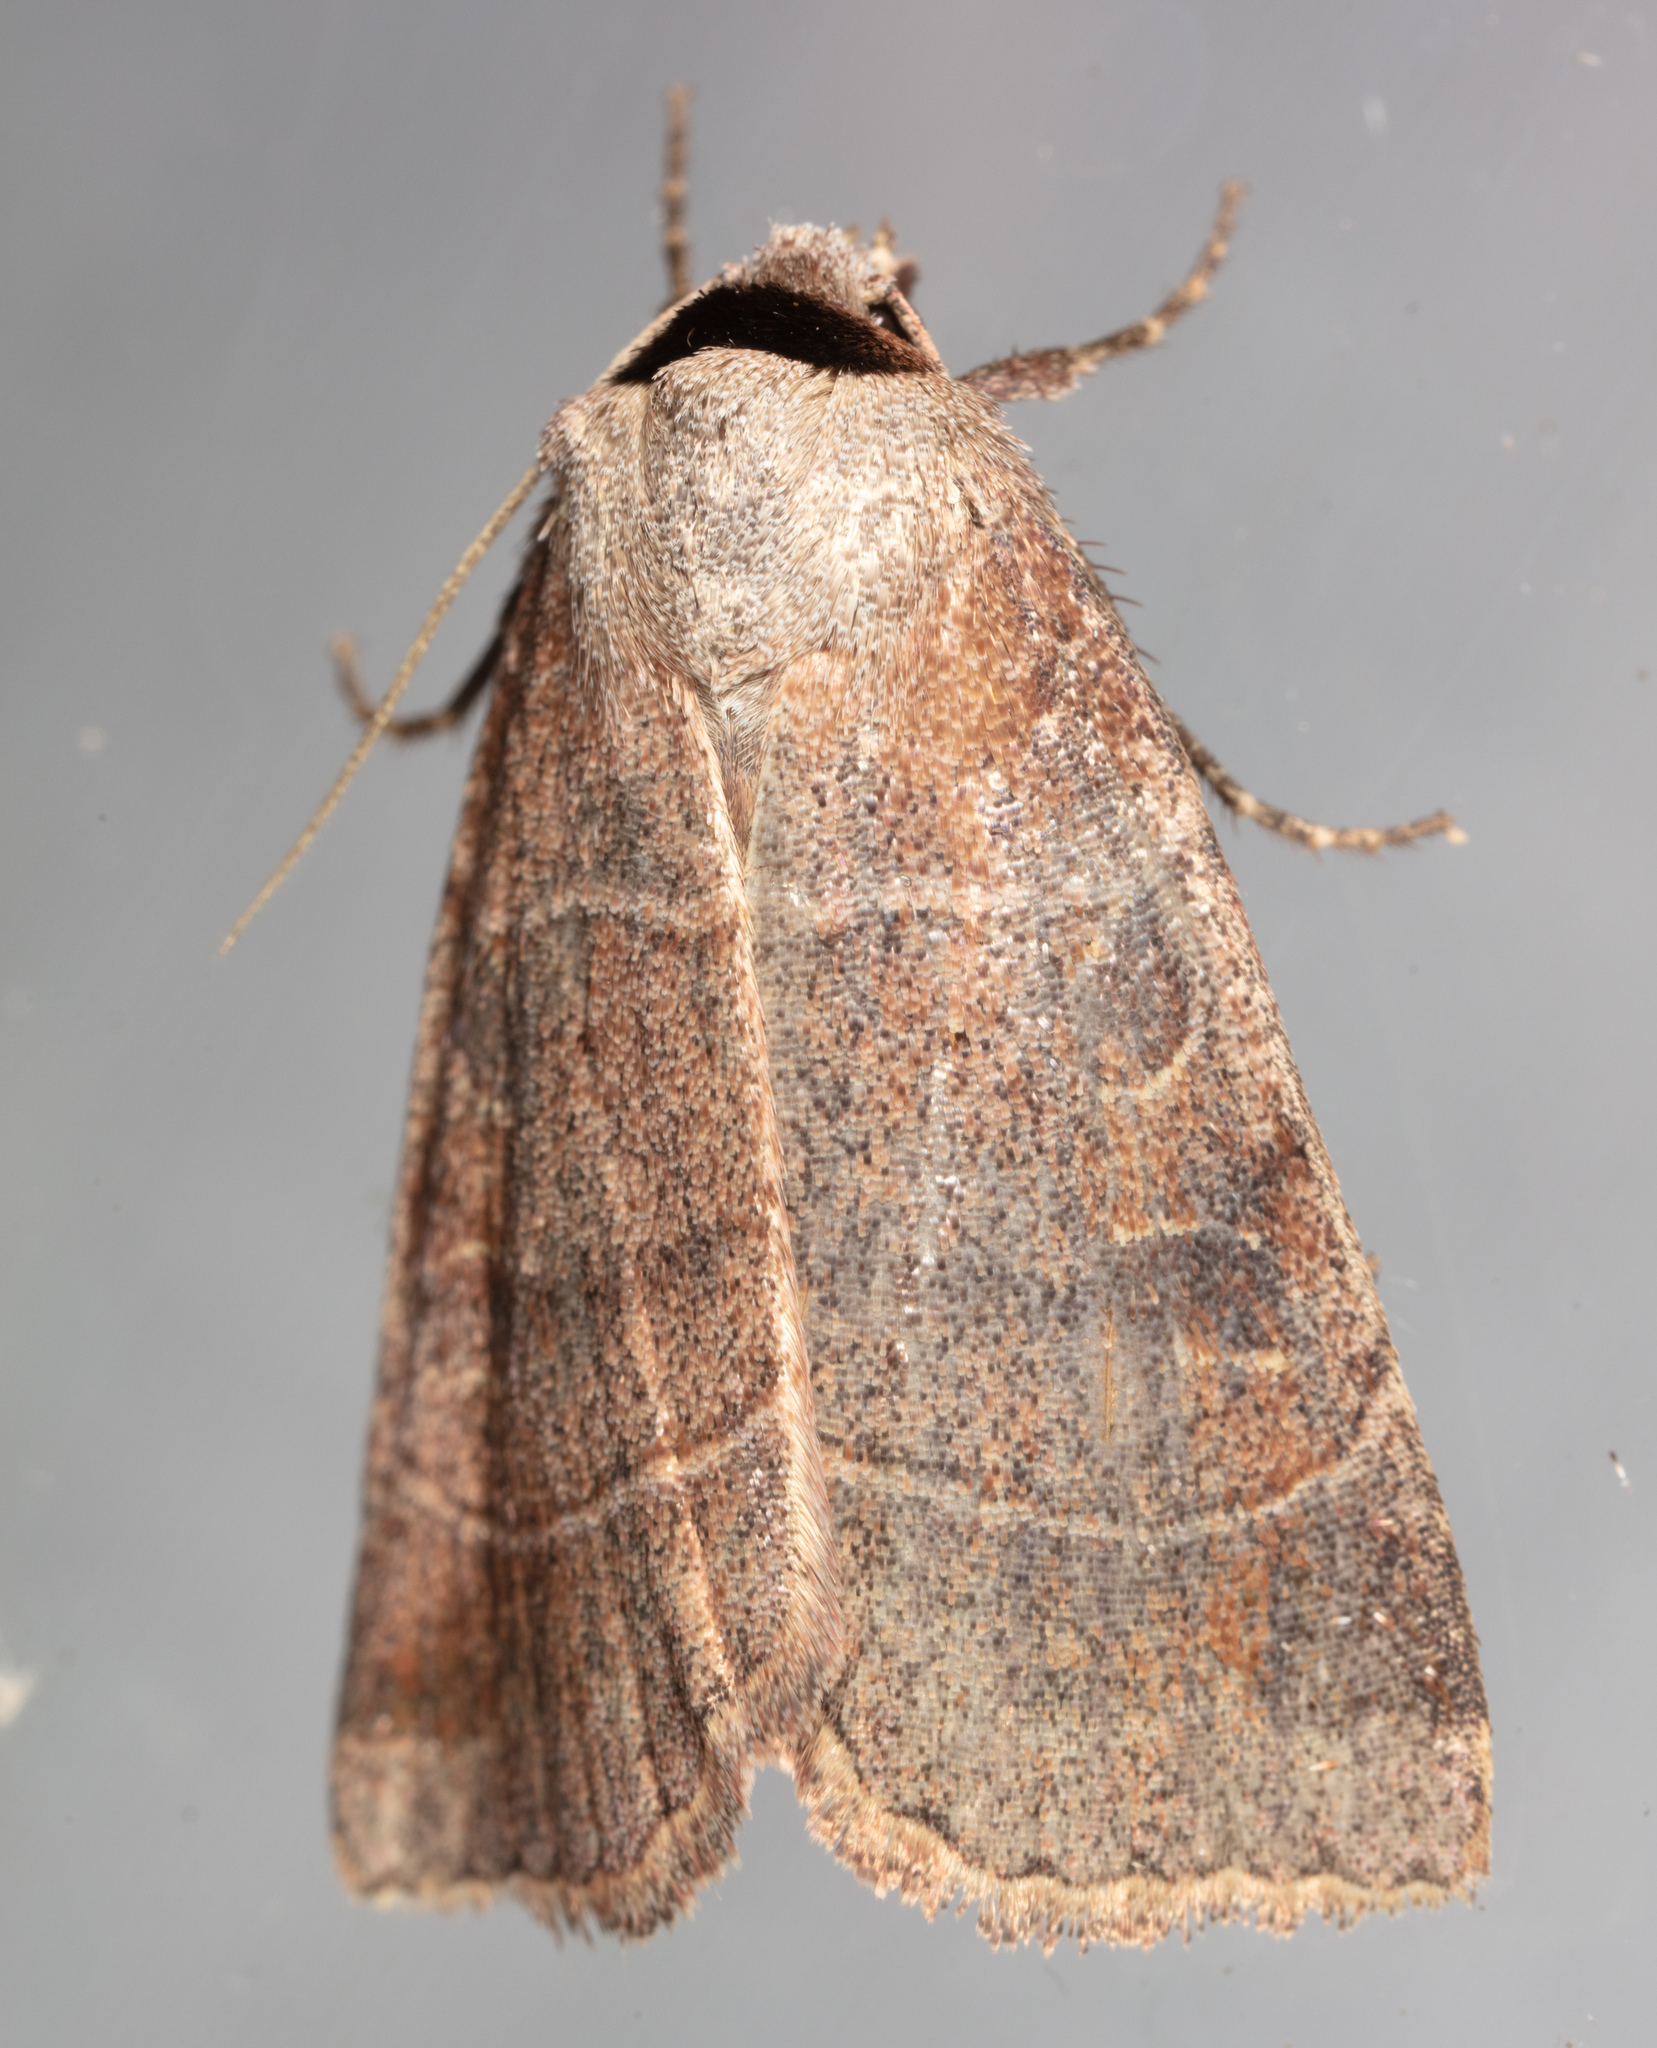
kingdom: Animalia
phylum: Arthropoda
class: Insecta
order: Lepidoptera
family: Noctuidae
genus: Agnorisma
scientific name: Agnorisma badinodis
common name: Pale-banded dart
